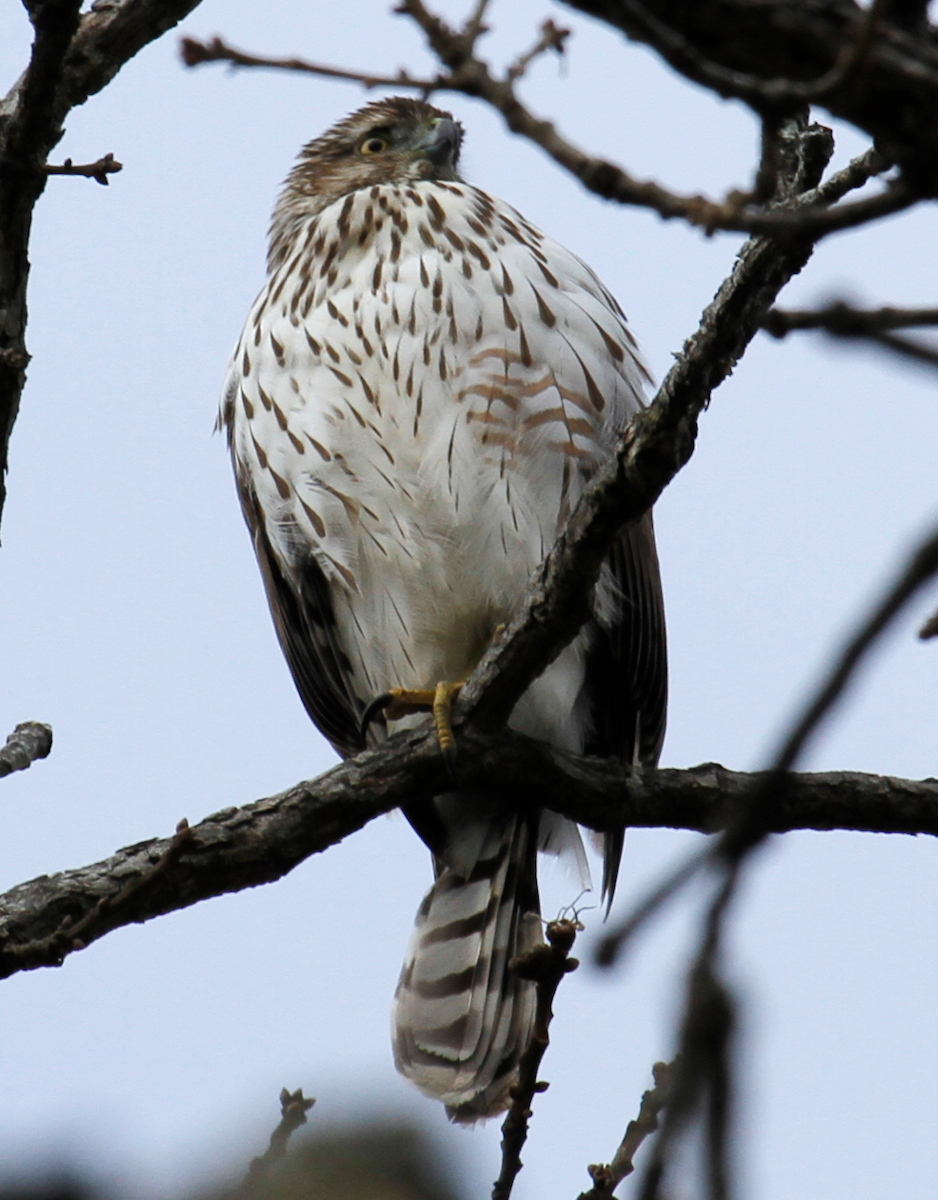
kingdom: Animalia
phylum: Chordata
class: Aves
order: Accipitriformes
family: Accipitridae
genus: Accipiter
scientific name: Accipiter cooperii
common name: Cooper's hawk
